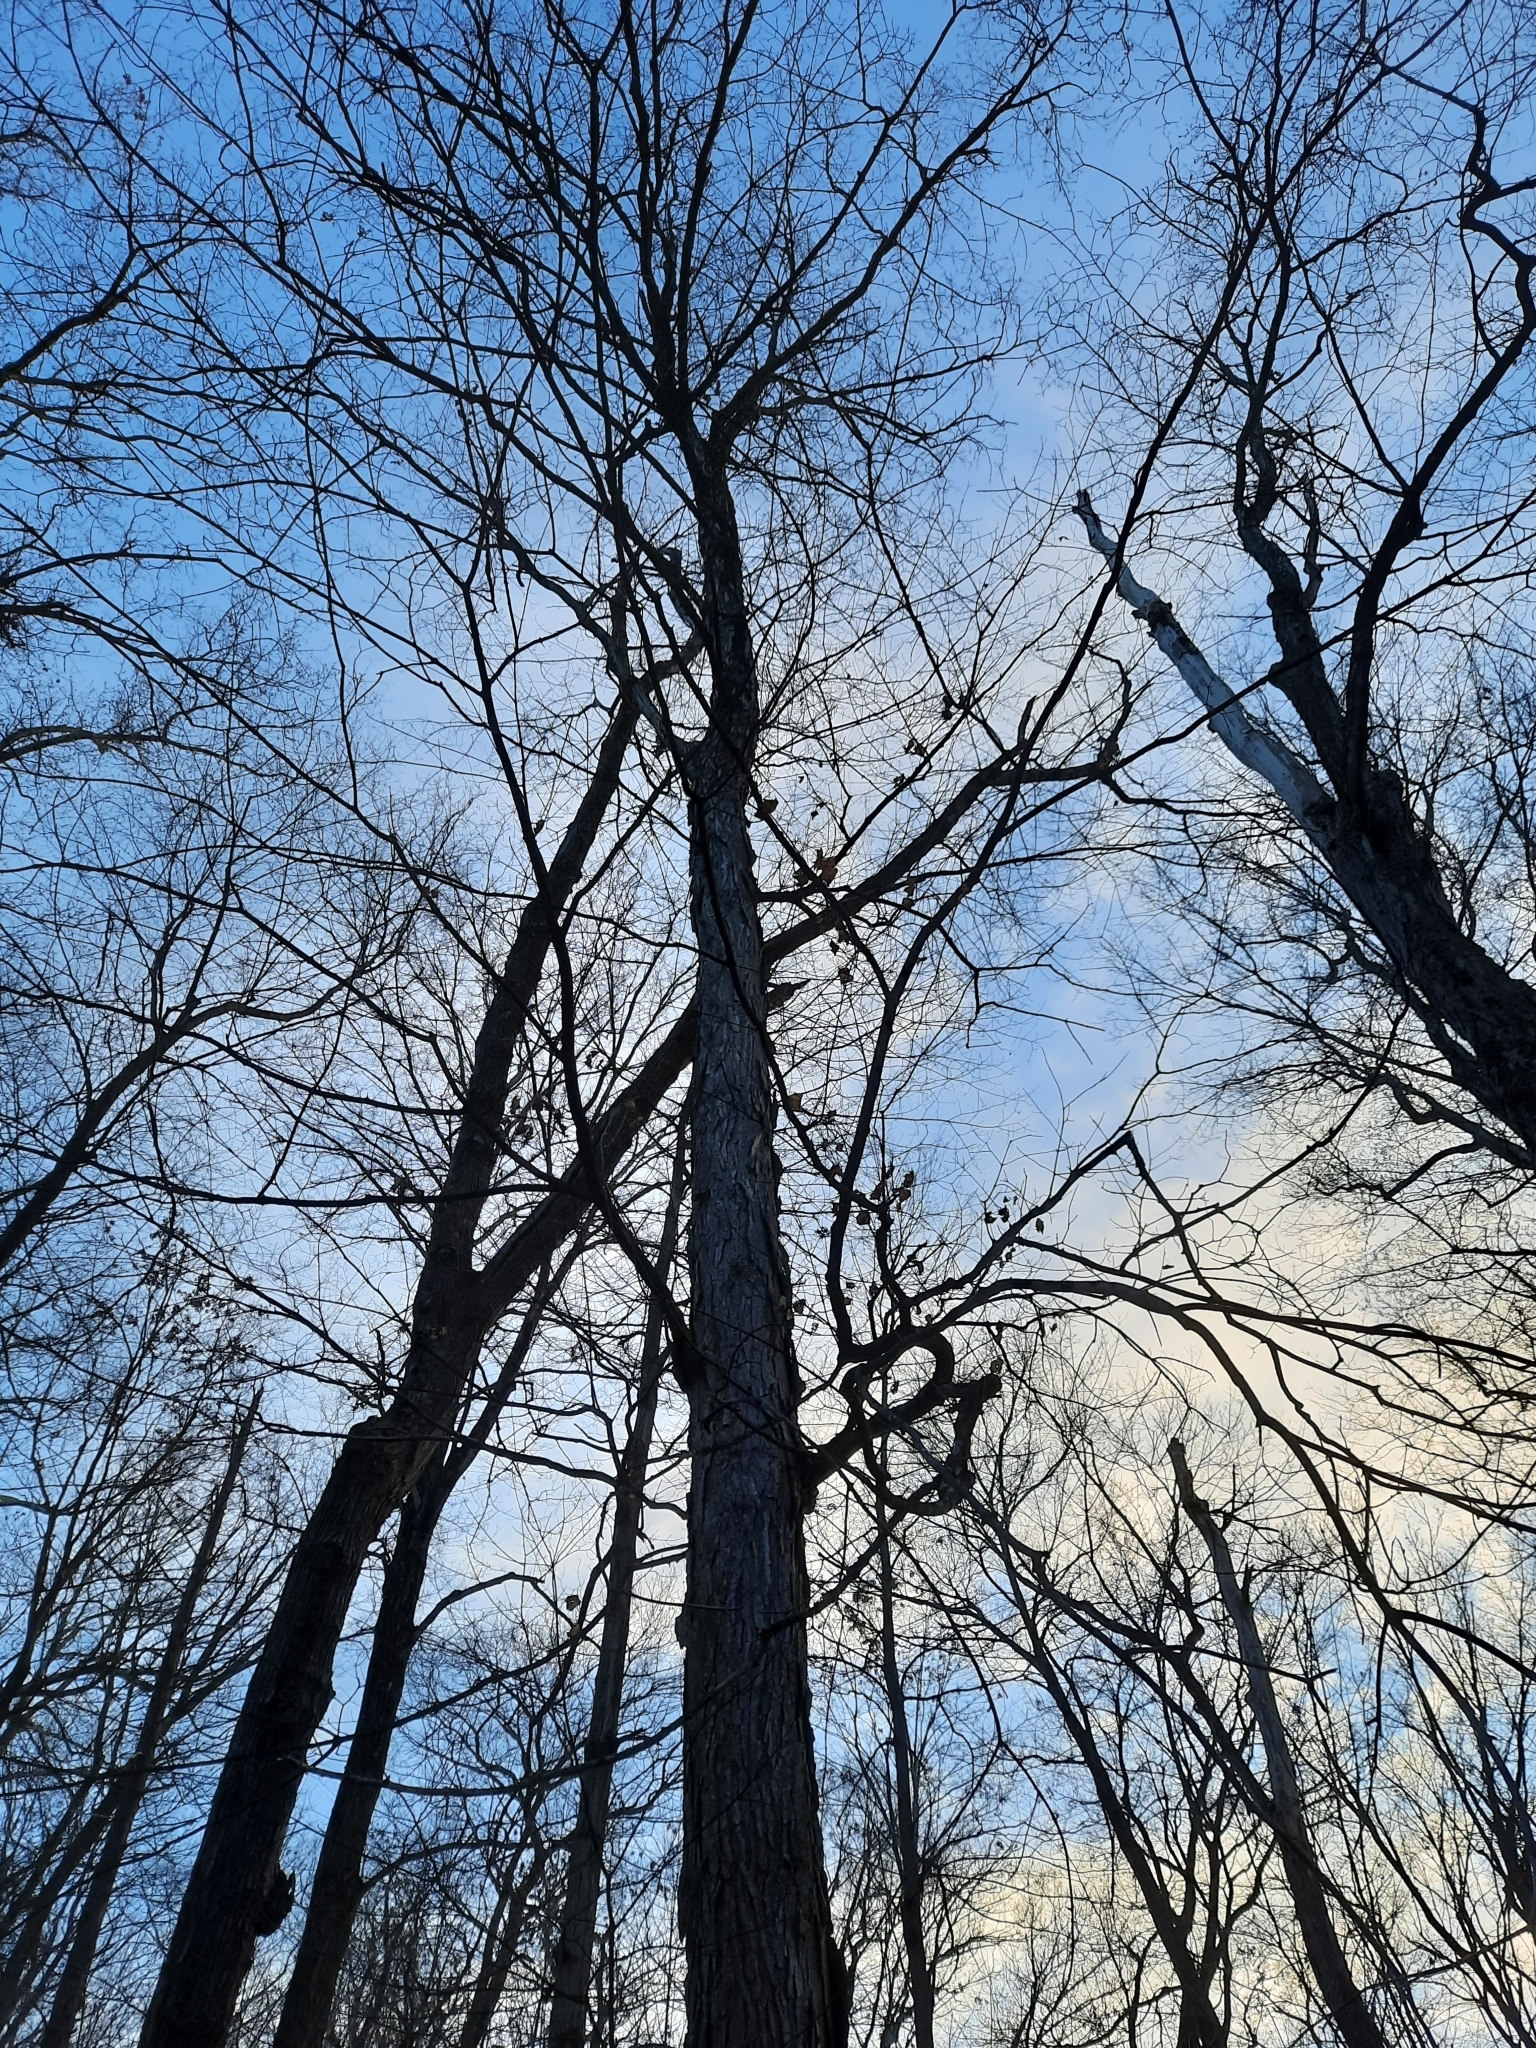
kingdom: Plantae
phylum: Tracheophyta
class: Magnoliopsida
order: Sapindales
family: Sapindaceae
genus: Acer
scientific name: Acer saccharum
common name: Sugar maple
